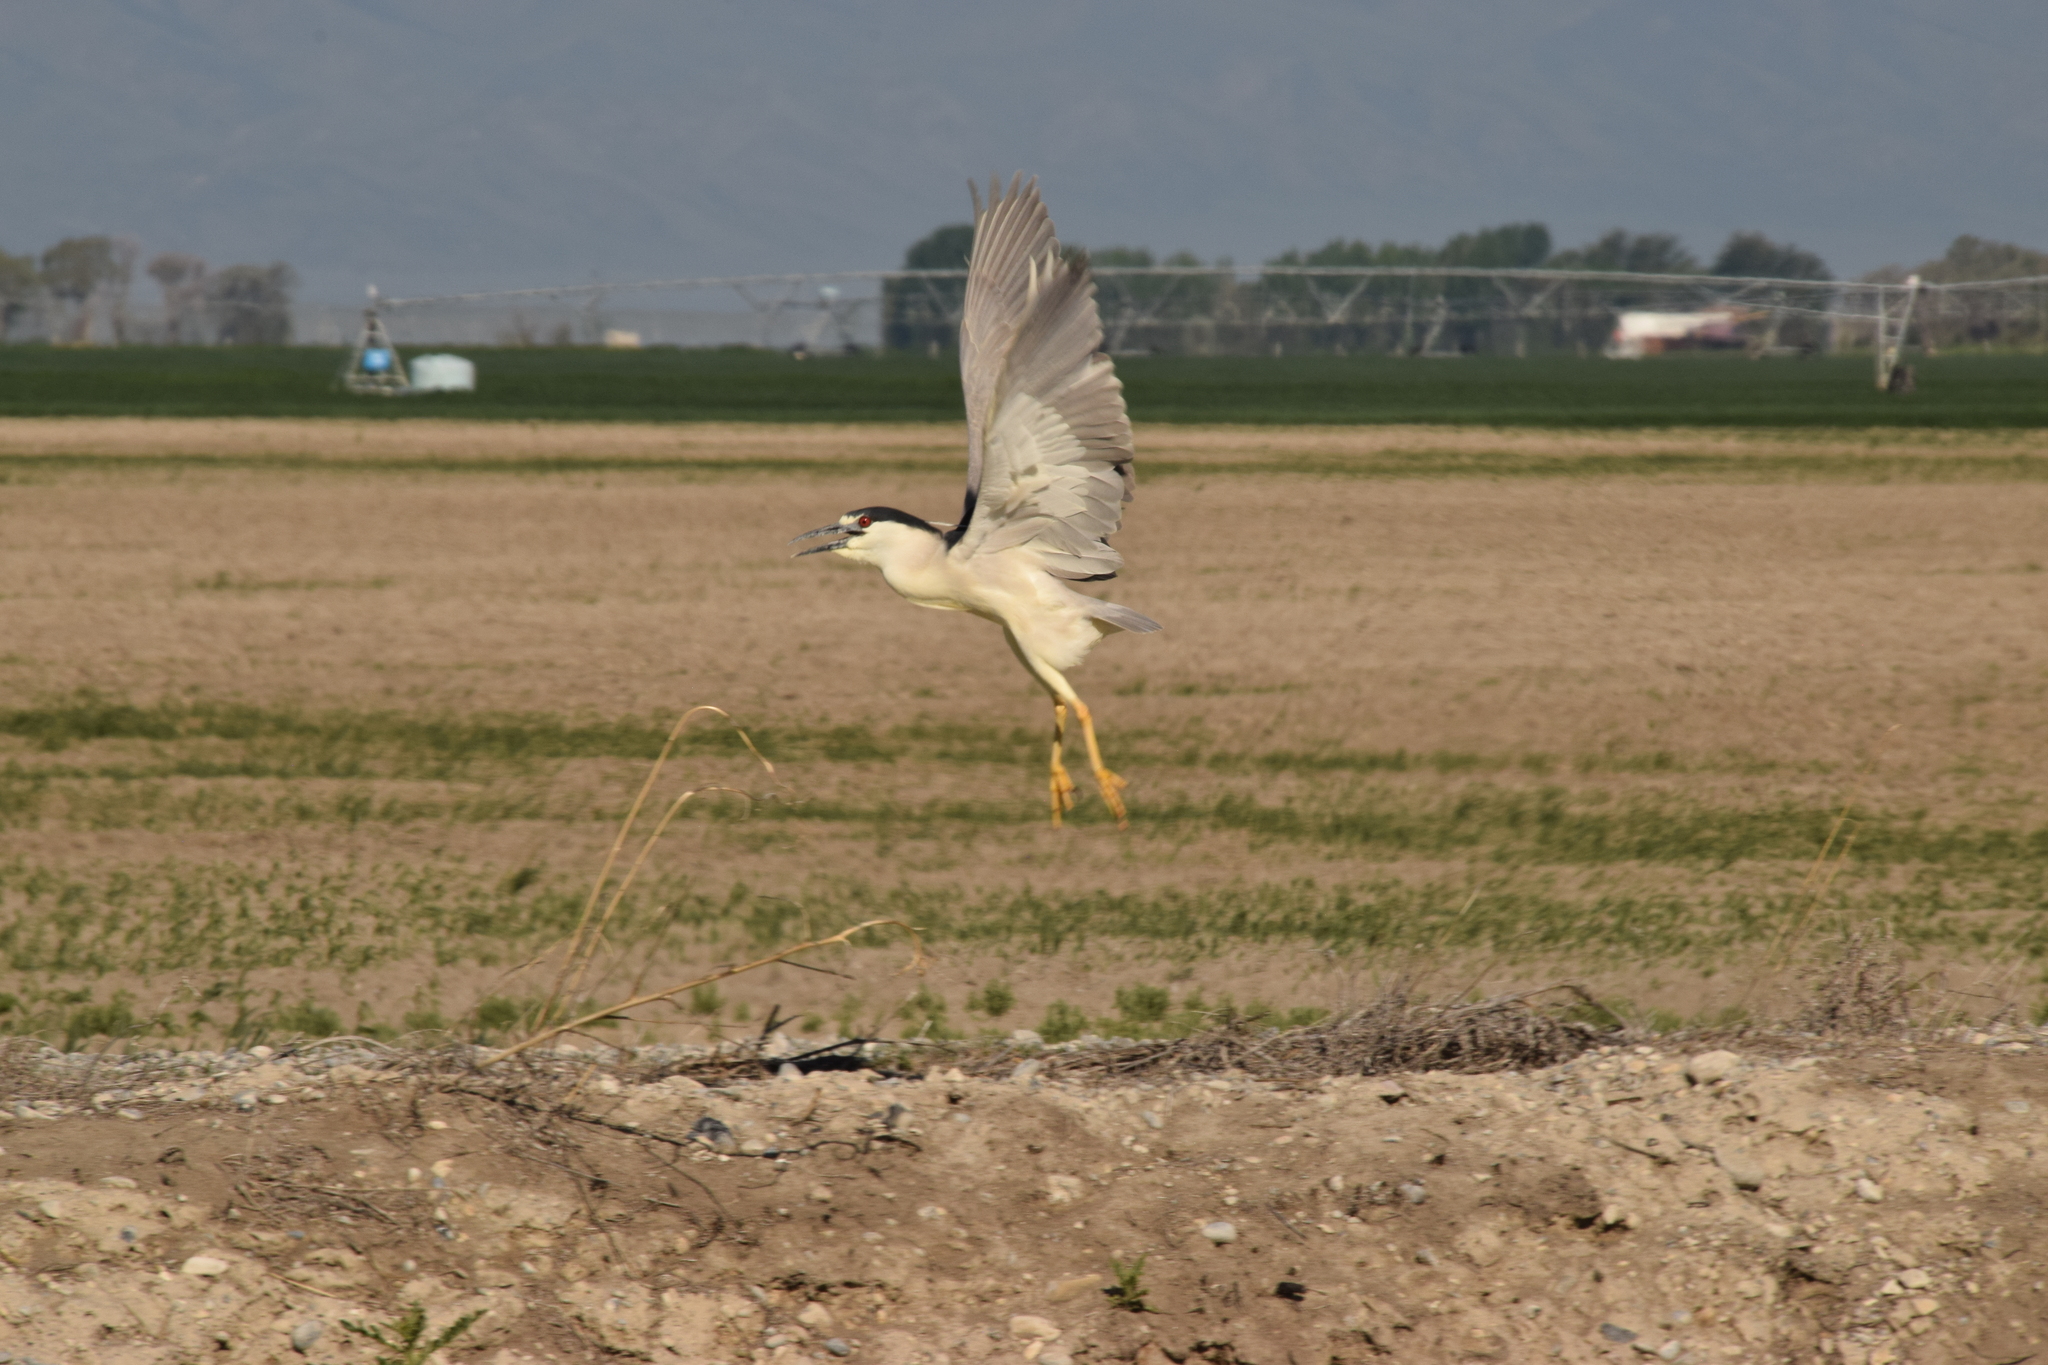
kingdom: Animalia
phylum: Chordata
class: Aves
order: Pelecaniformes
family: Ardeidae
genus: Nycticorax
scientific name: Nycticorax nycticorax
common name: Black-crowned night heron
